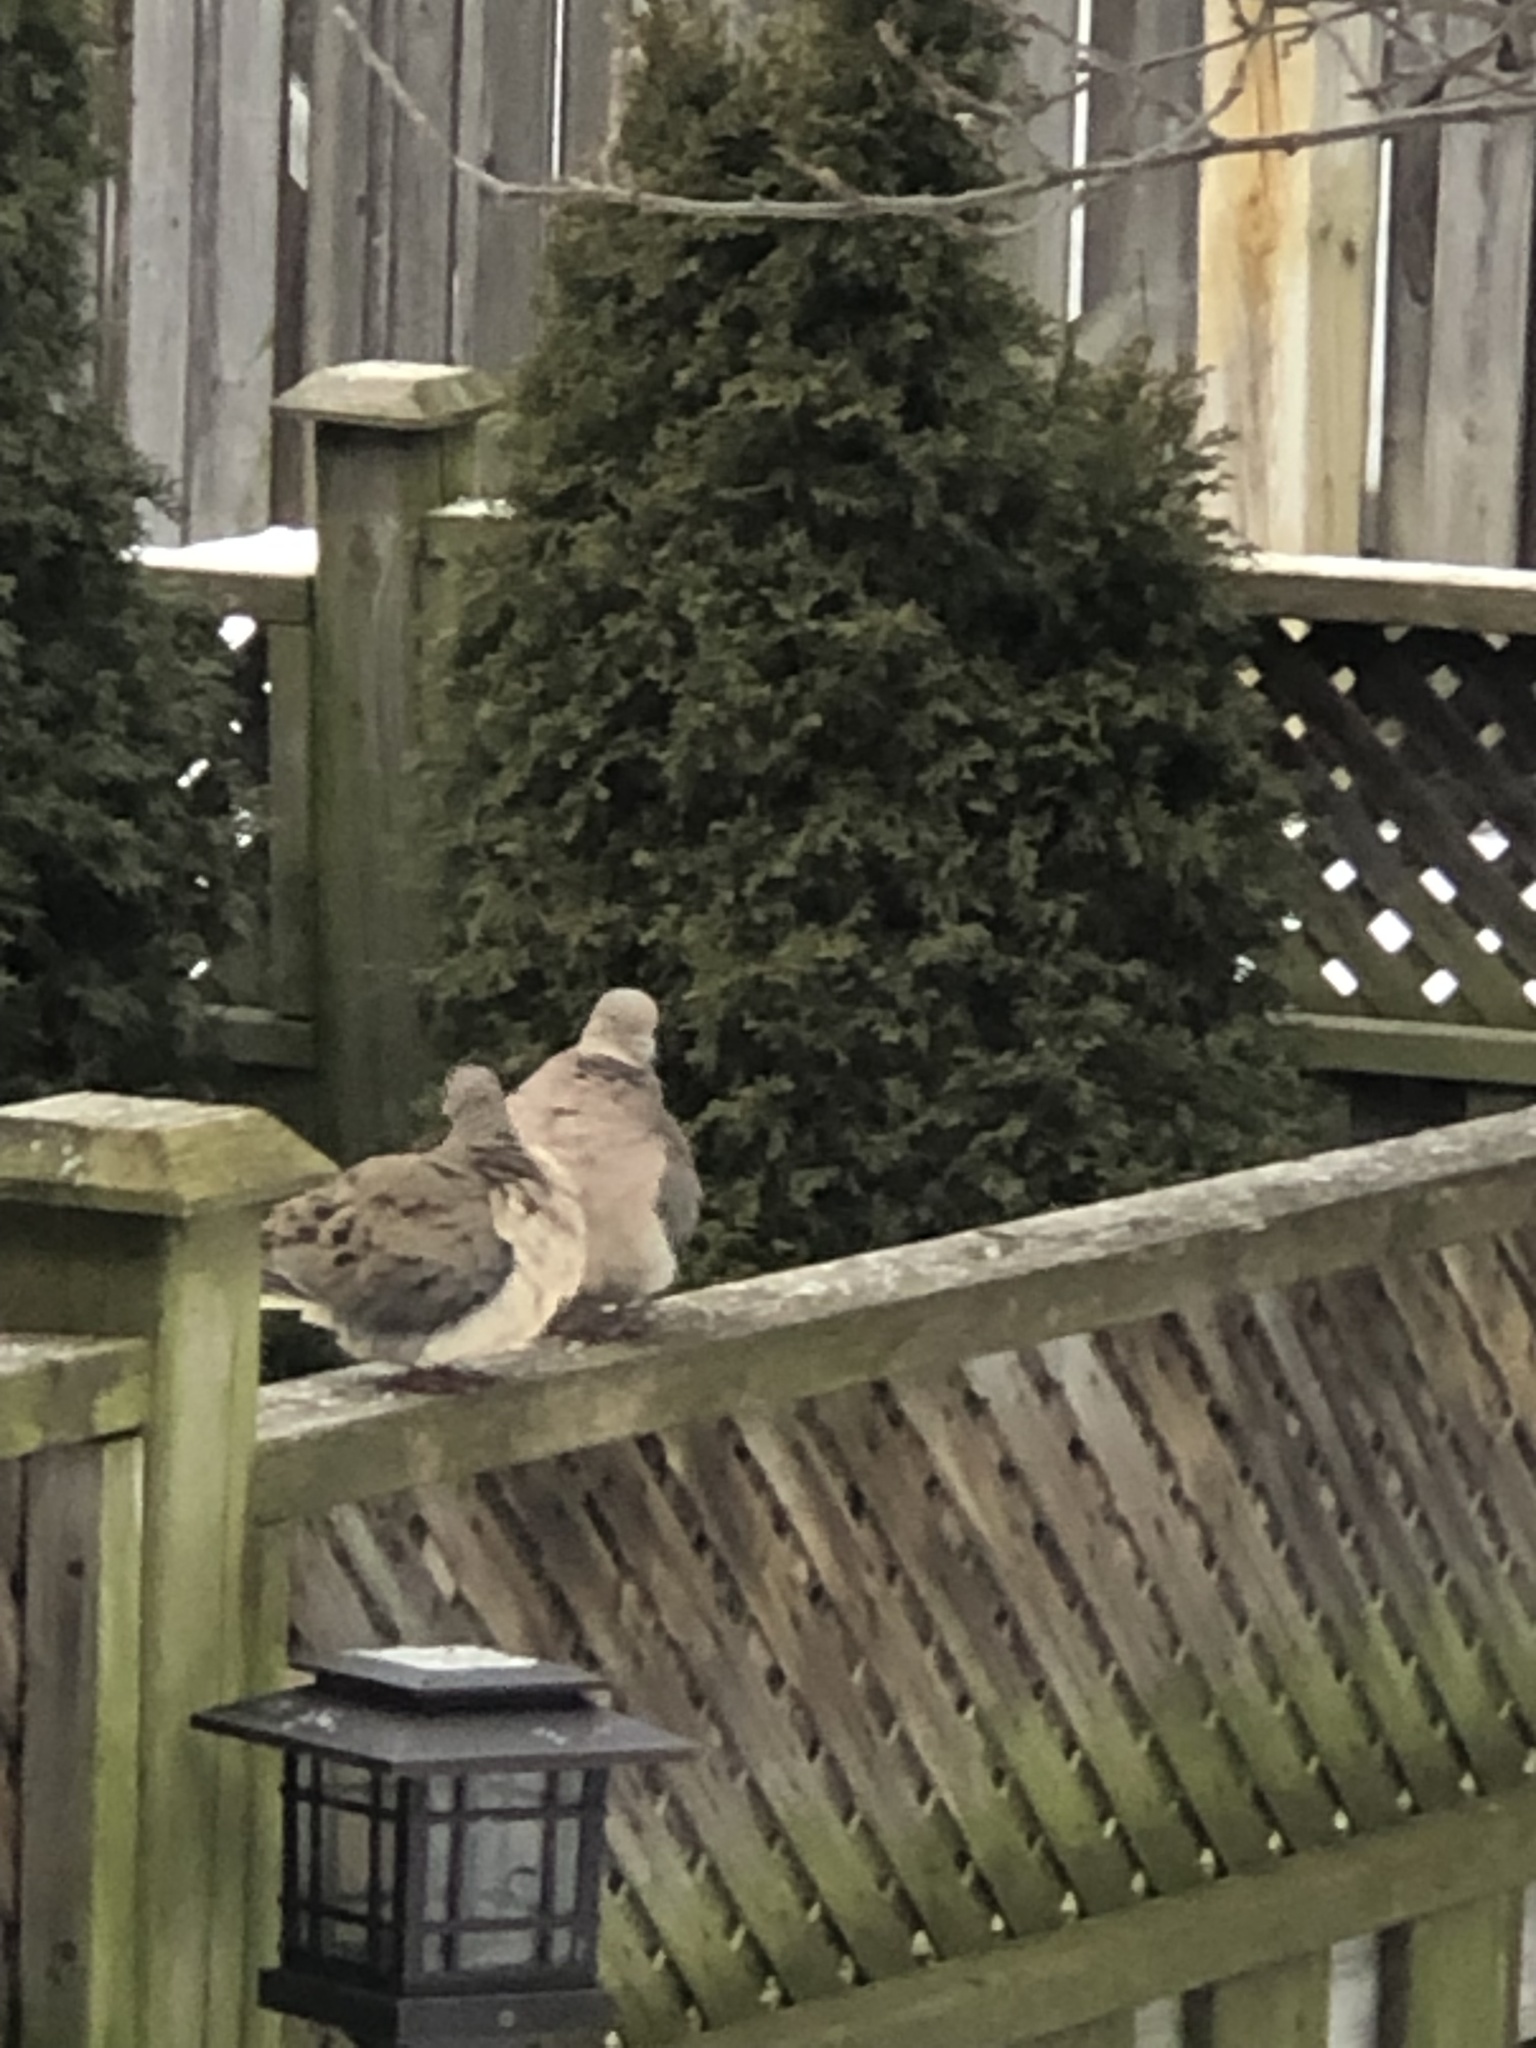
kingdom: Animalia
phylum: Chordata
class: Aves
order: Columbiformes
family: Columbidae
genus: Zenaida
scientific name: Zenaida macroura
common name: Mourning dove
